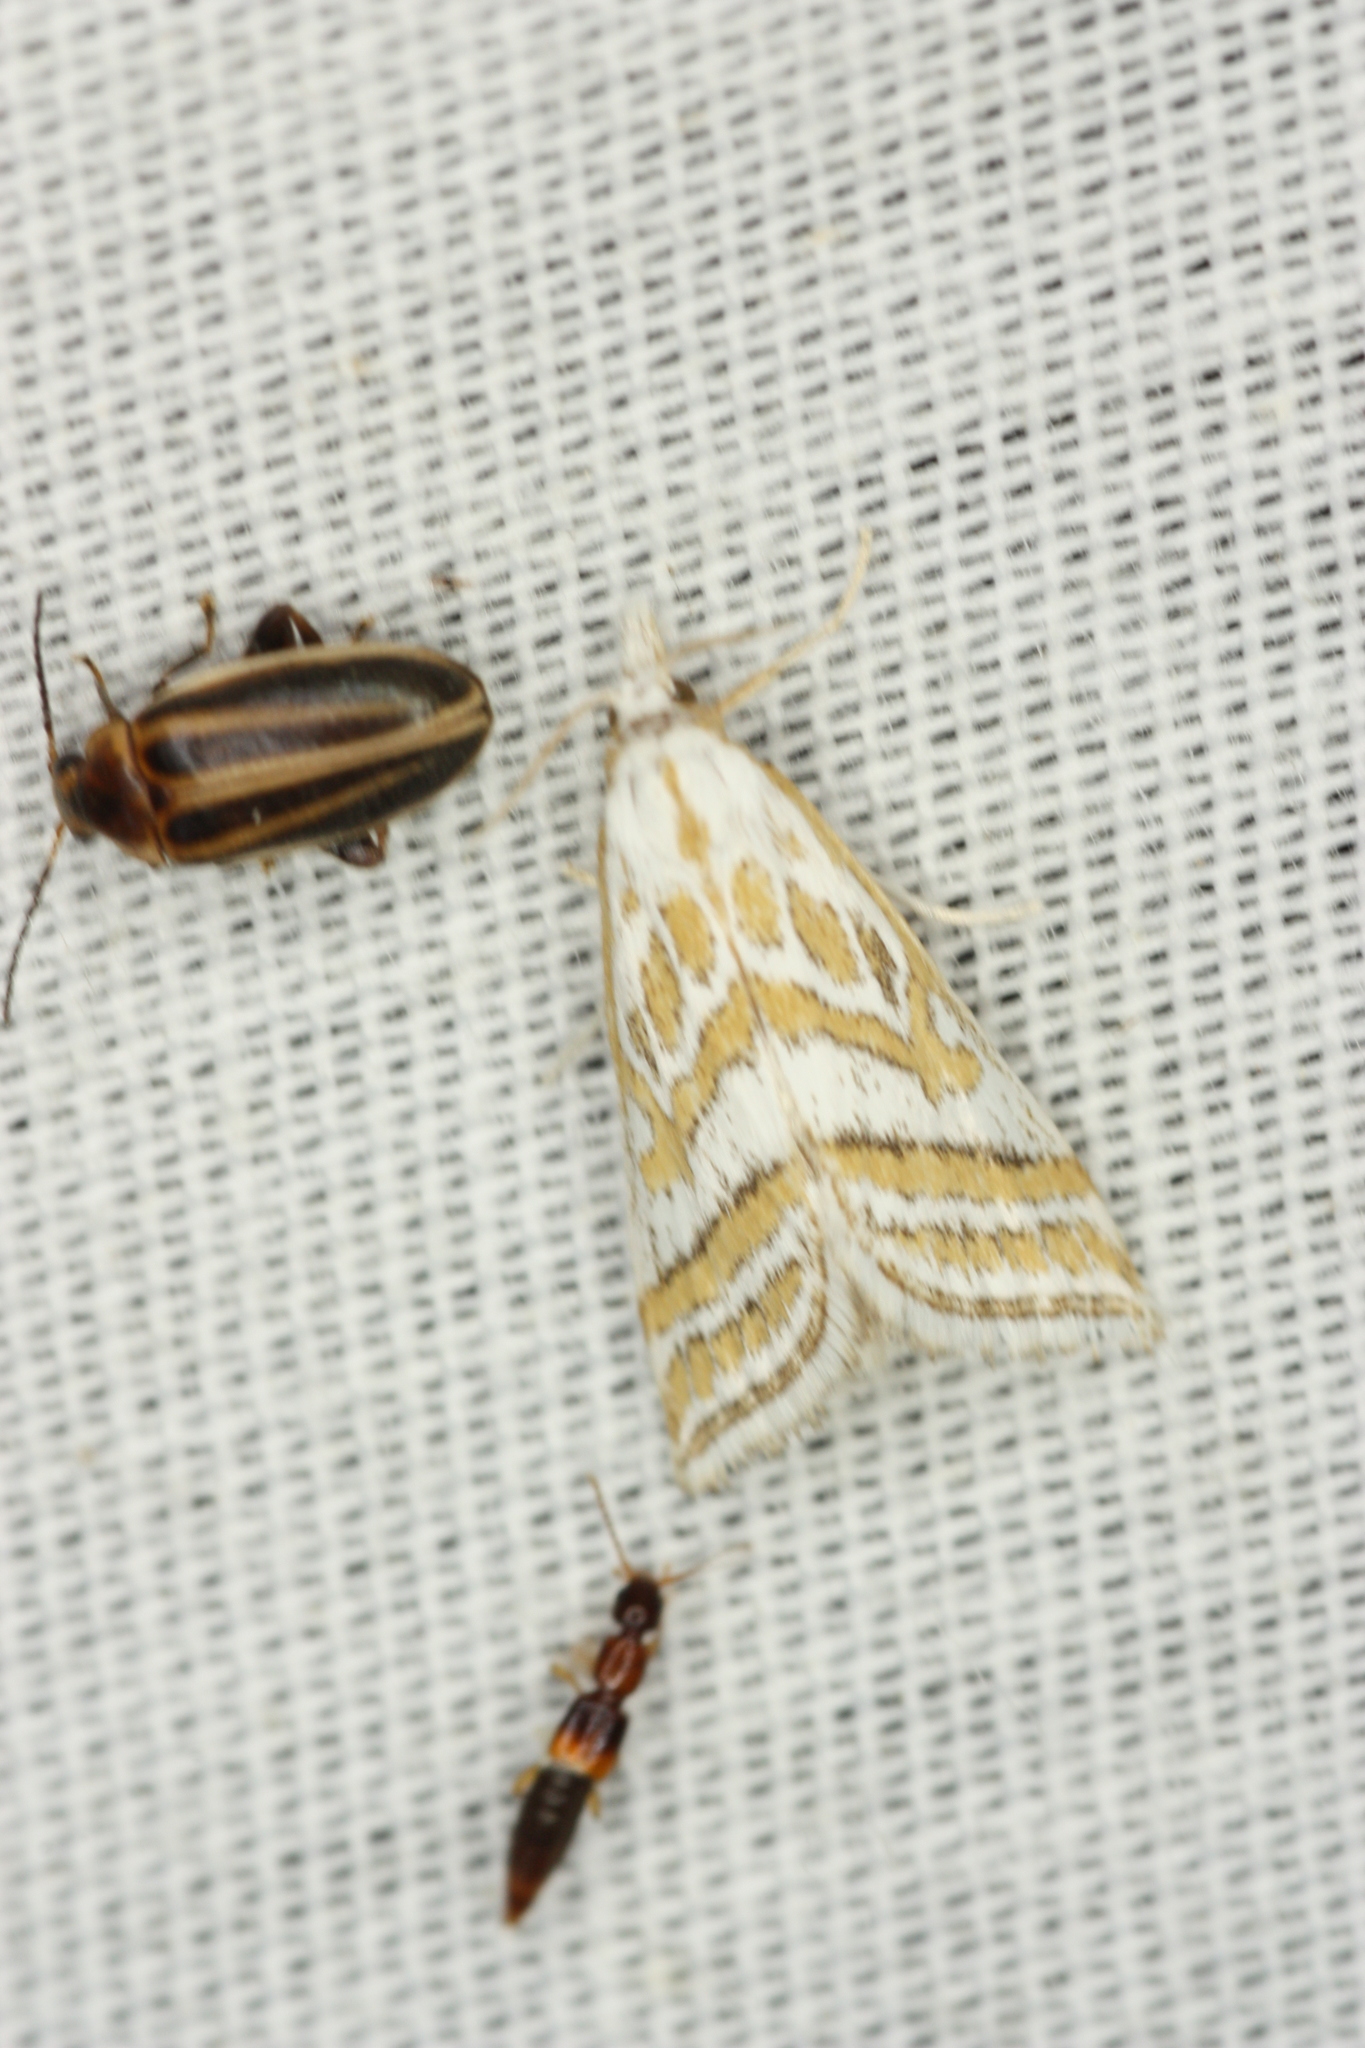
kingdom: Animalia
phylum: Arthropoda
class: Insecta
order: Lepidoptera
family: Crambidae
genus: Leptosteges
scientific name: Leptosteges
